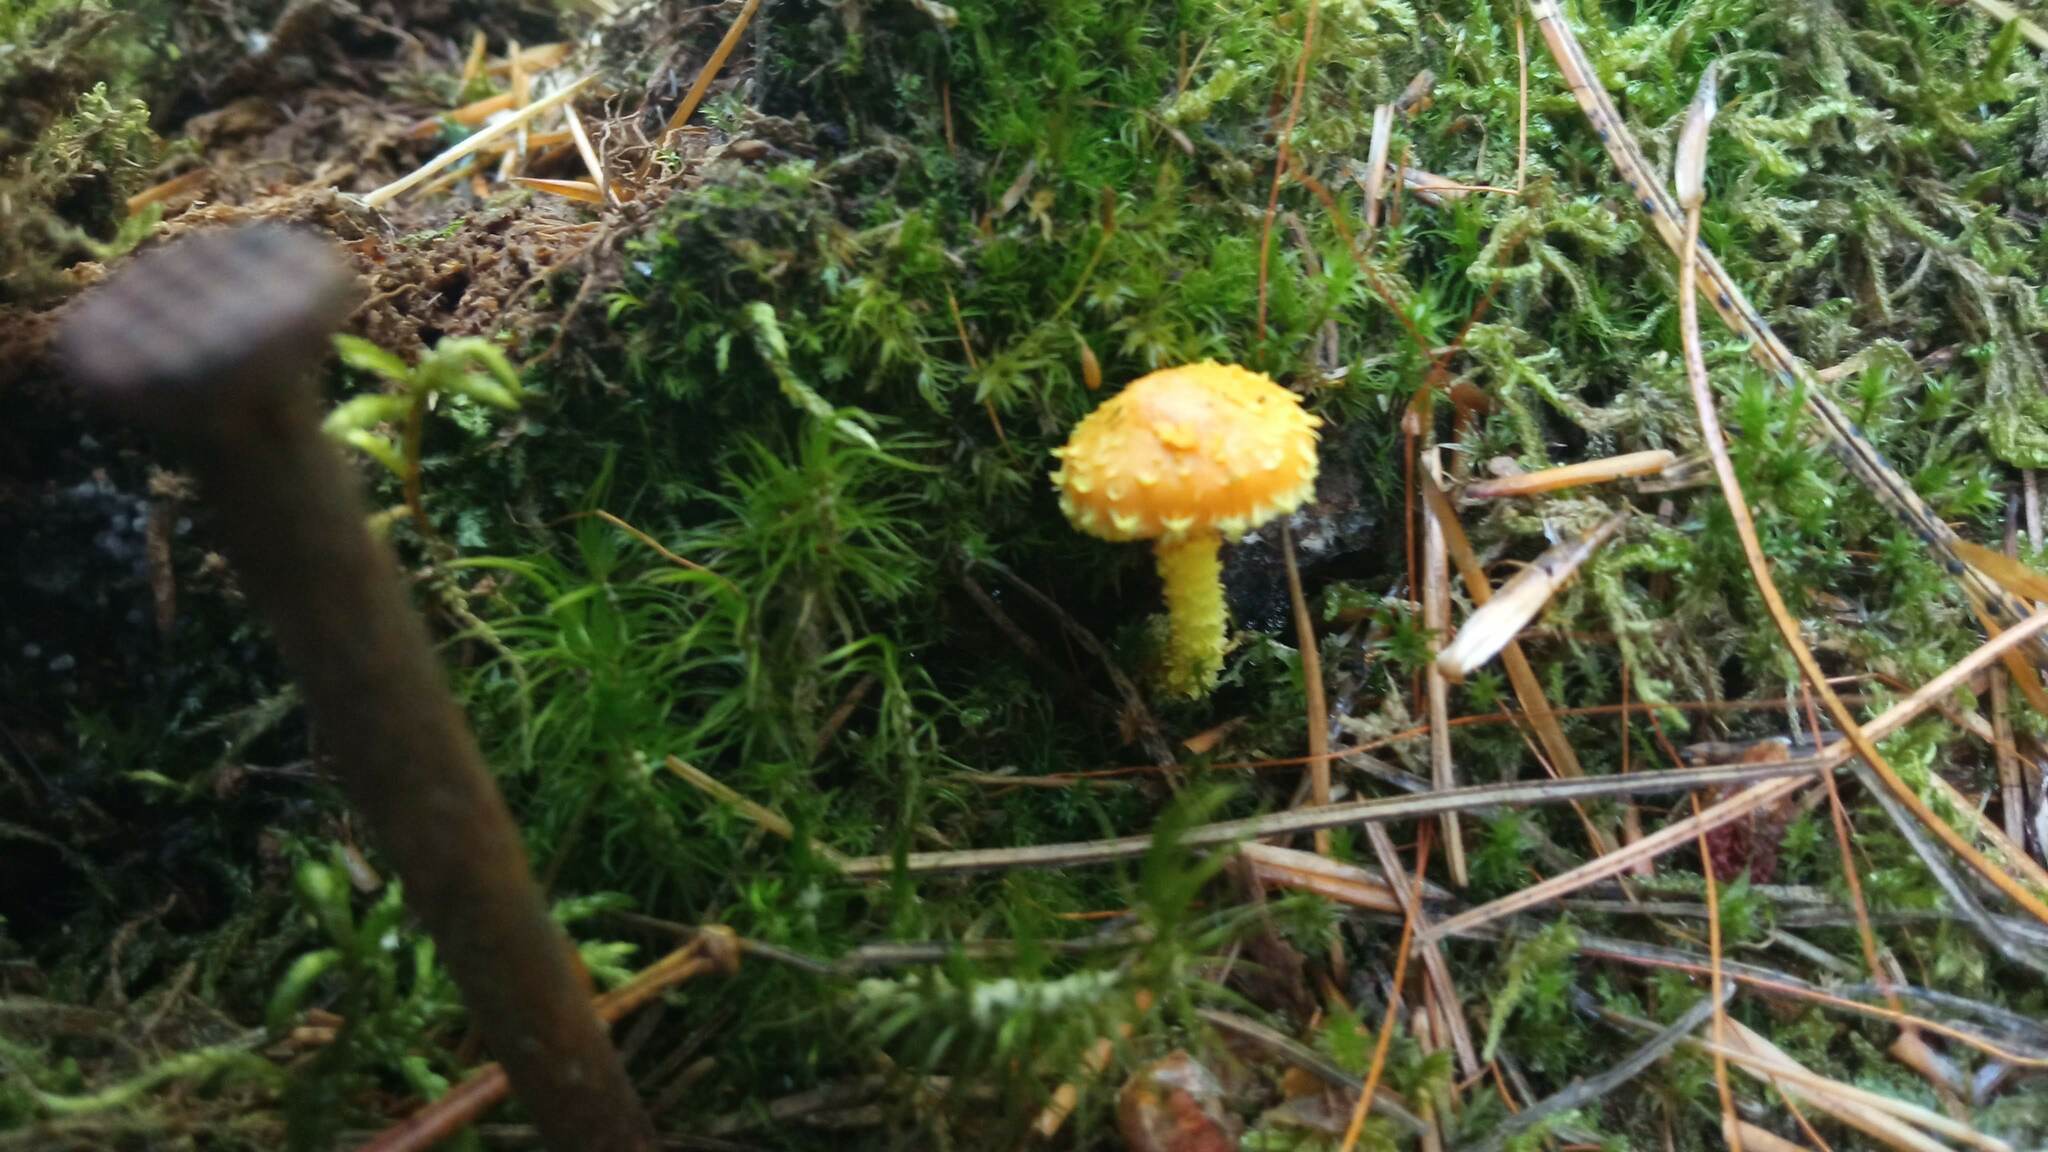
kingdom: Fungi
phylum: Basidiomycota
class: Agaricomycetes
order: Agaricales
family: Strophariaceae
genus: Pholiota
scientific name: Pholiota flammans
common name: Flaming scalycap
